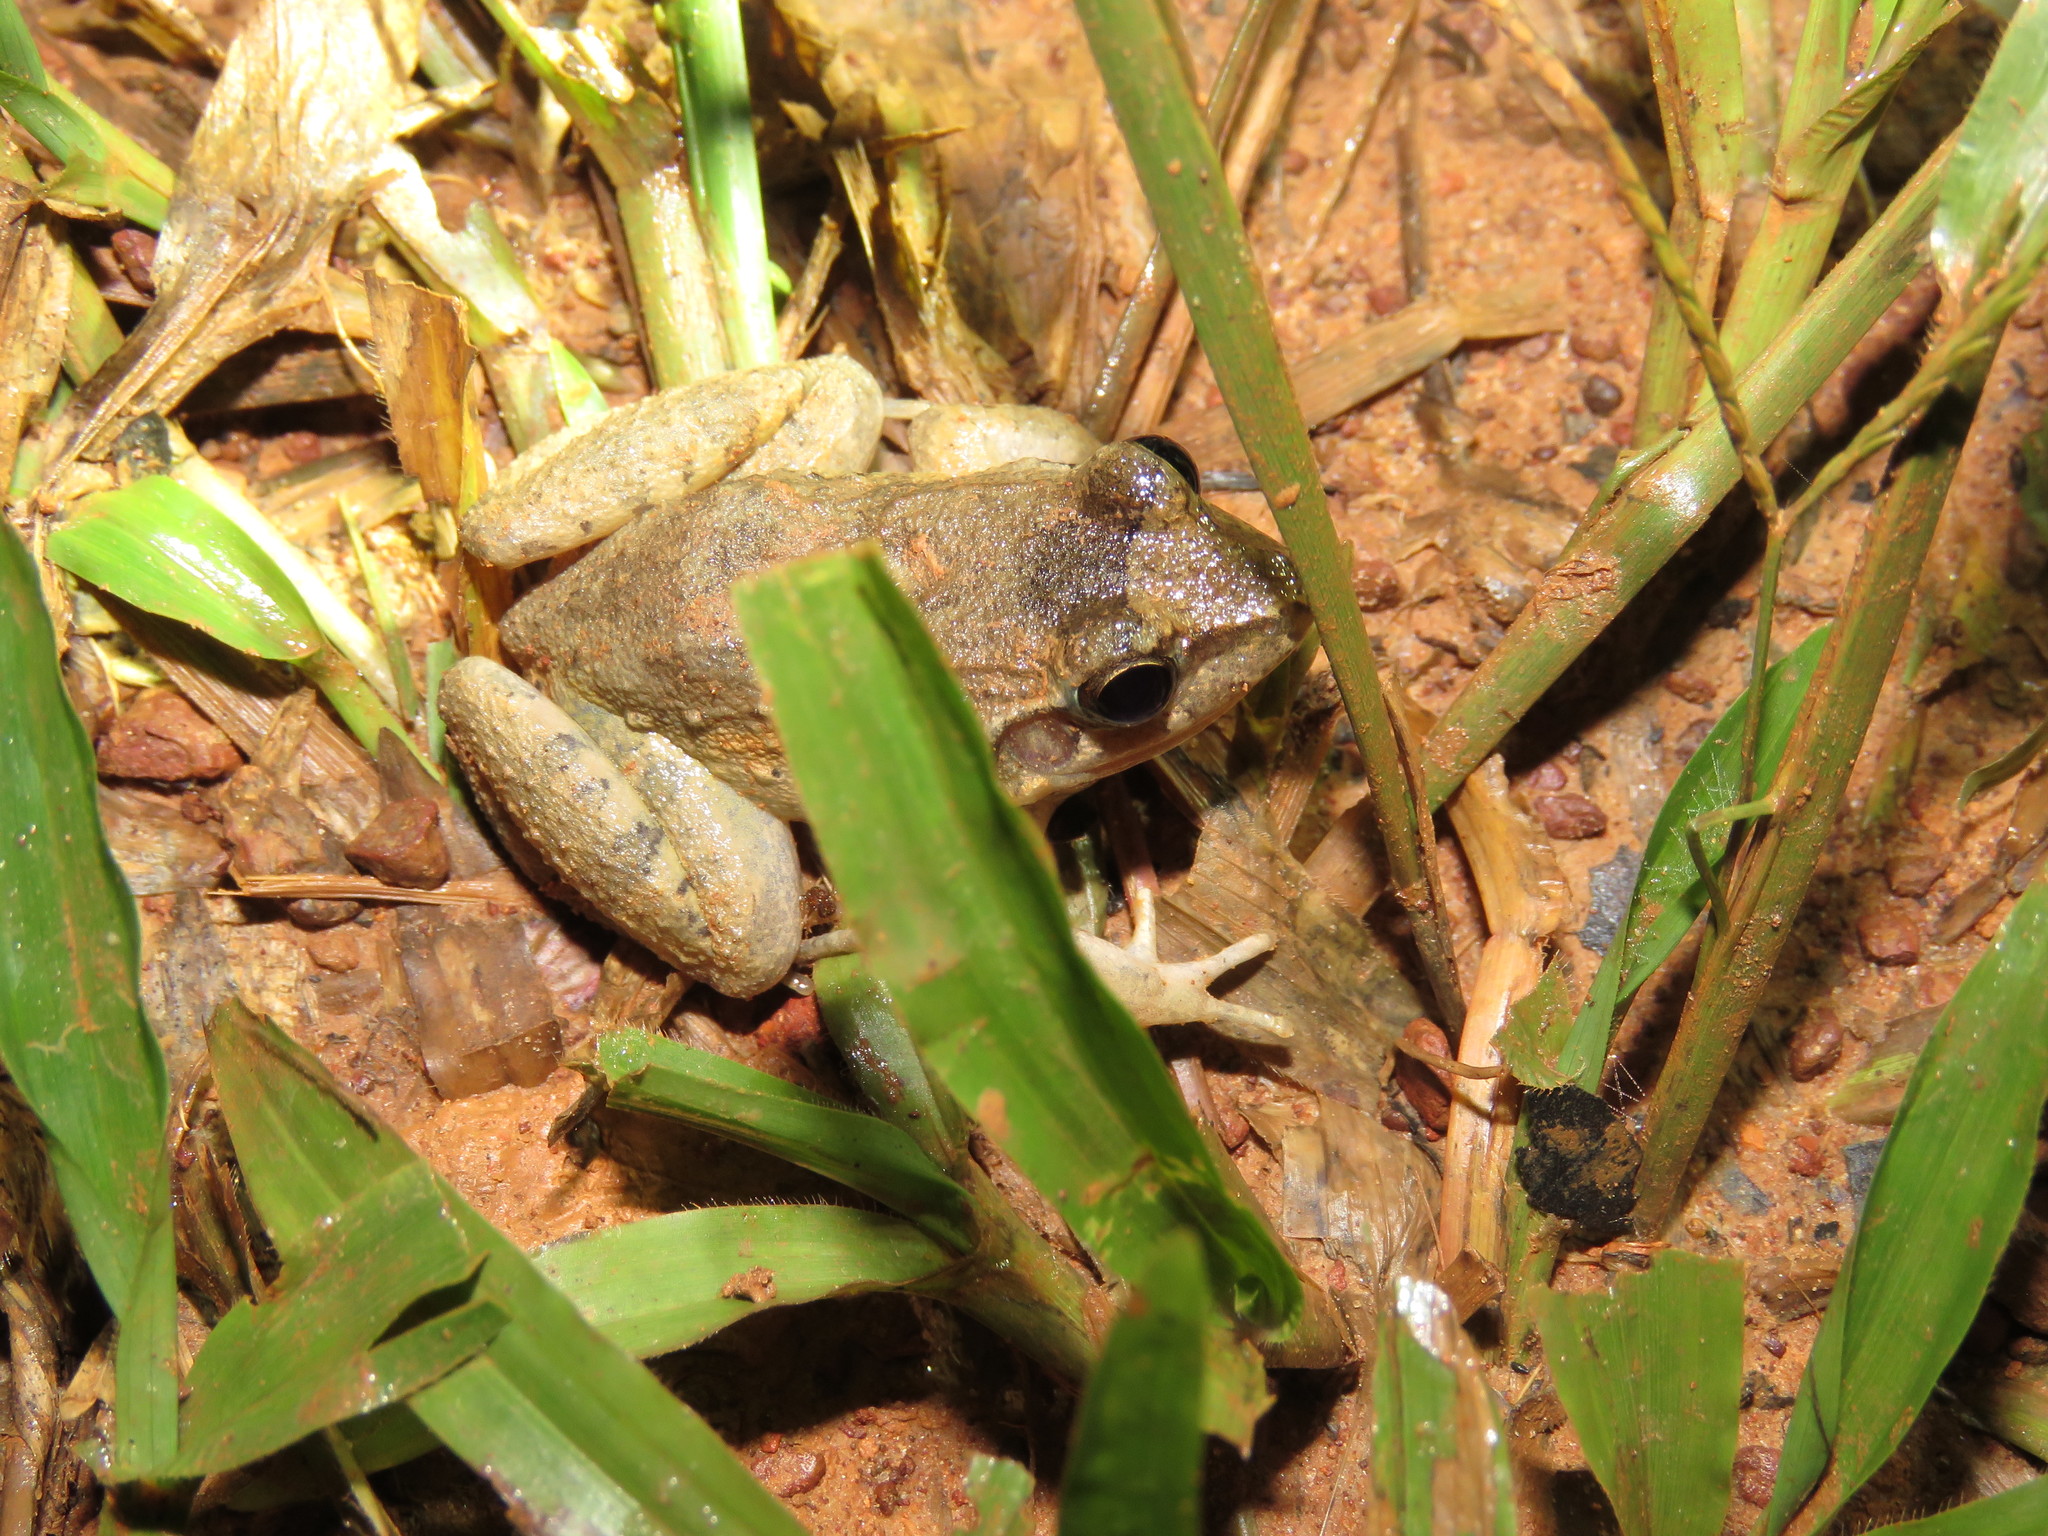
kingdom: Animalia
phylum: Chordata
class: Amphibia
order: Anura
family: Leptodactylidae
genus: Leptodactylus
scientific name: Leptodactylus leptodactyloides
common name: Common thin-toed frog
